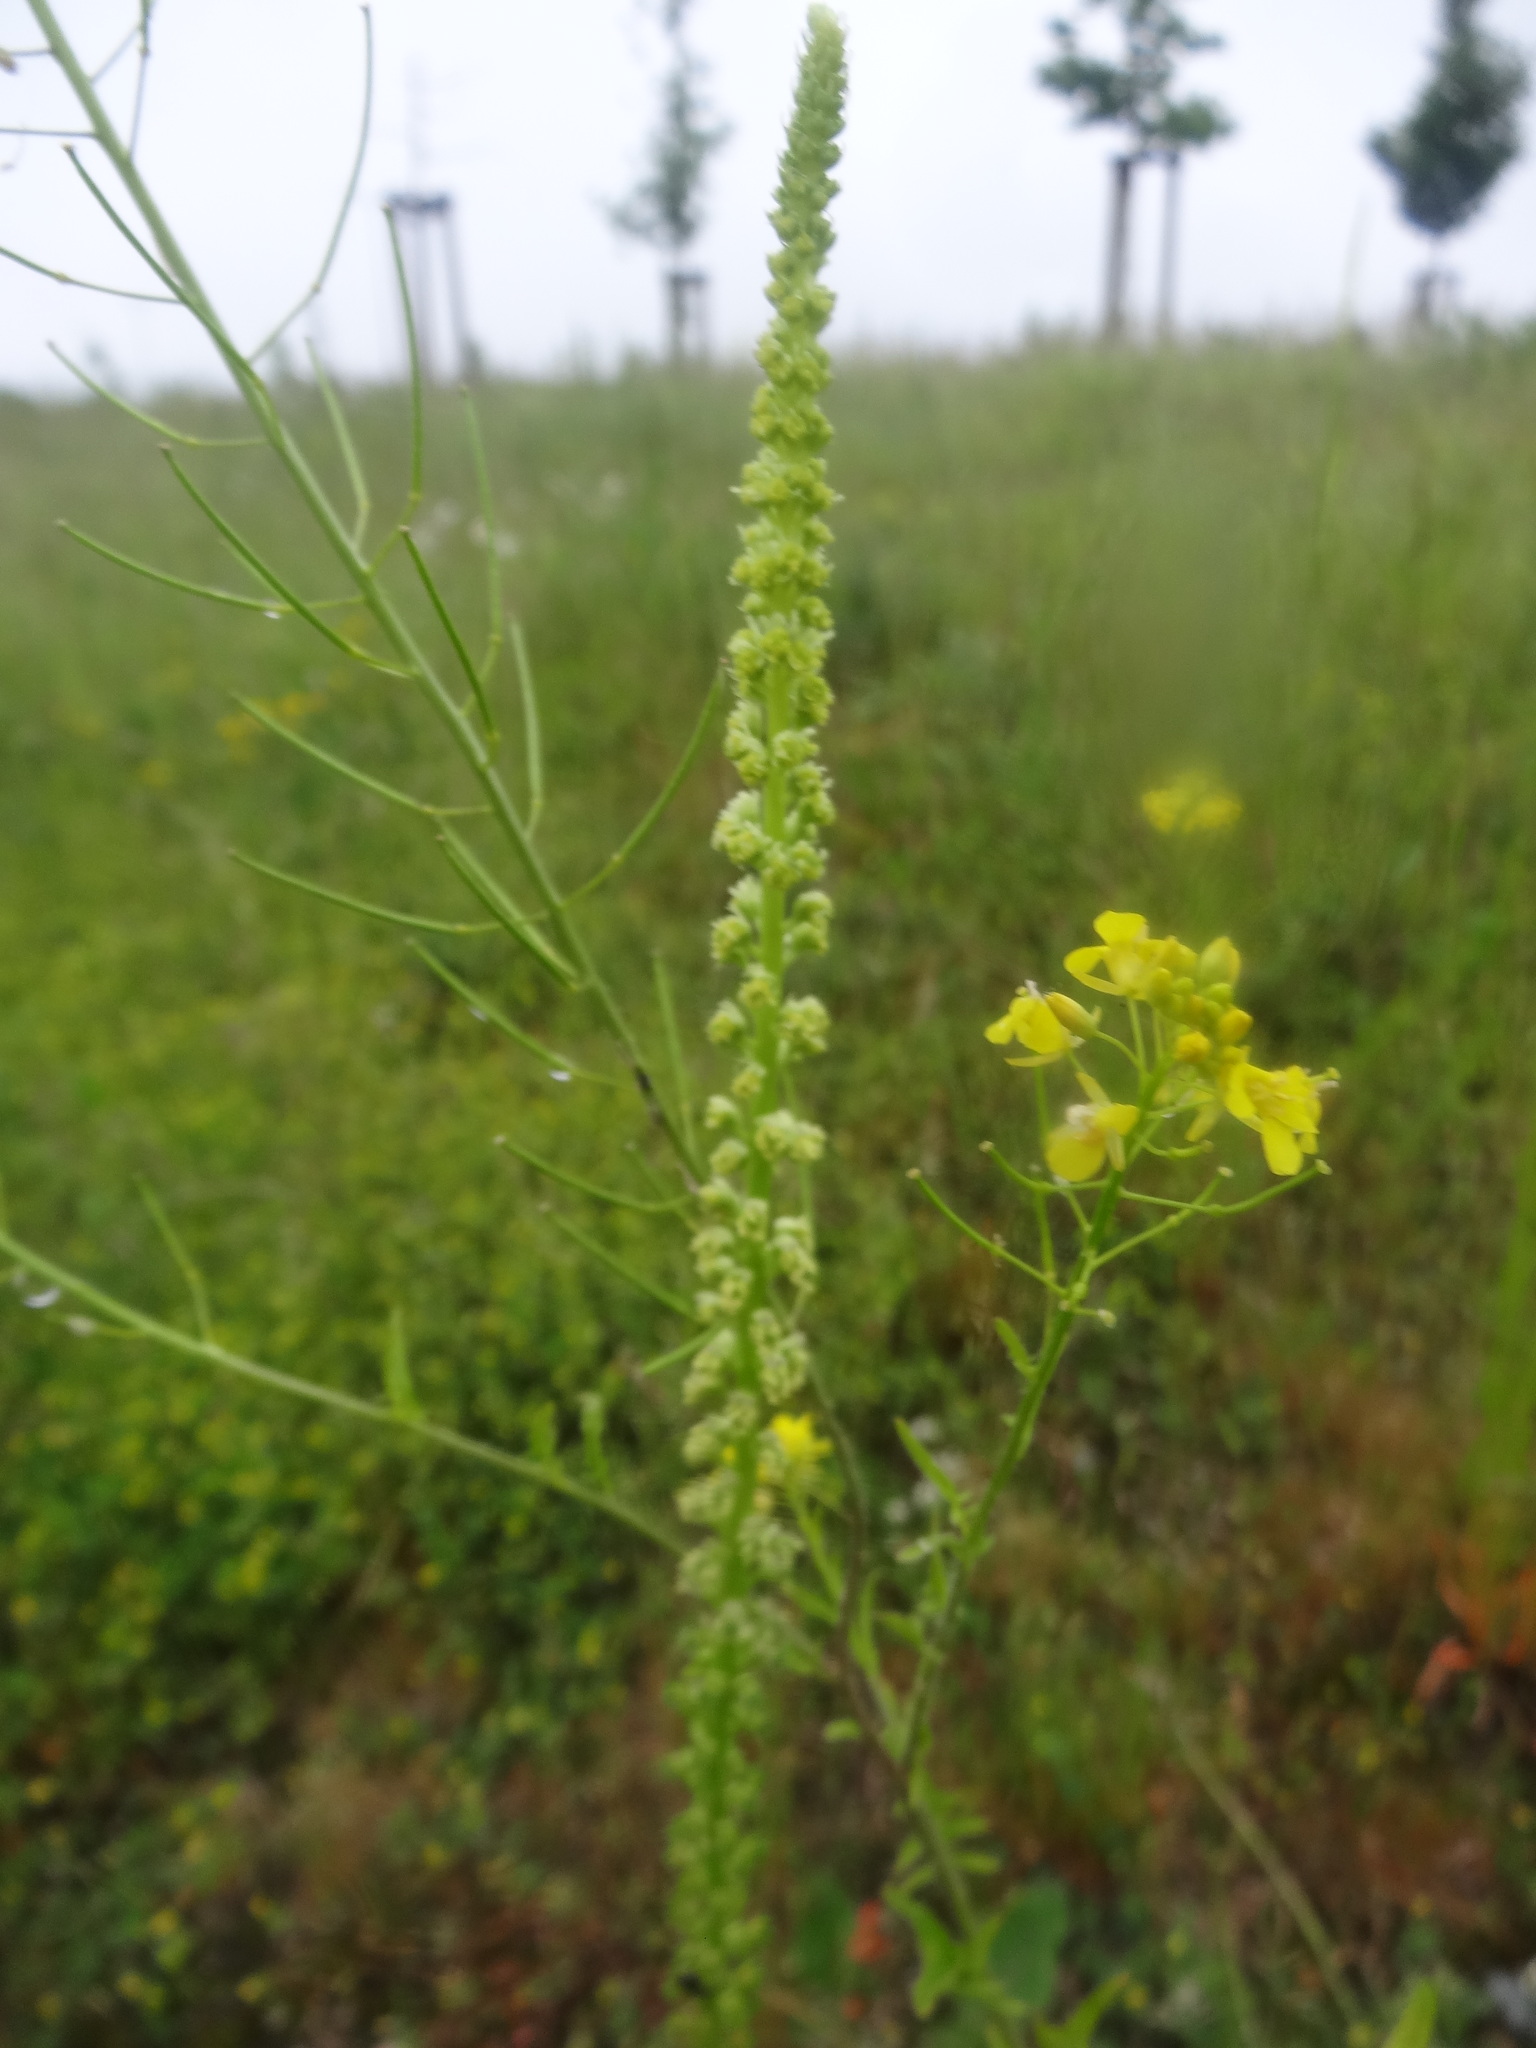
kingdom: Plantae
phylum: Tracheophyta
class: Magnoliopsida
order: Brassicales
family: Resedaceae
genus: Reseda
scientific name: Reseda luteola
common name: Weld
